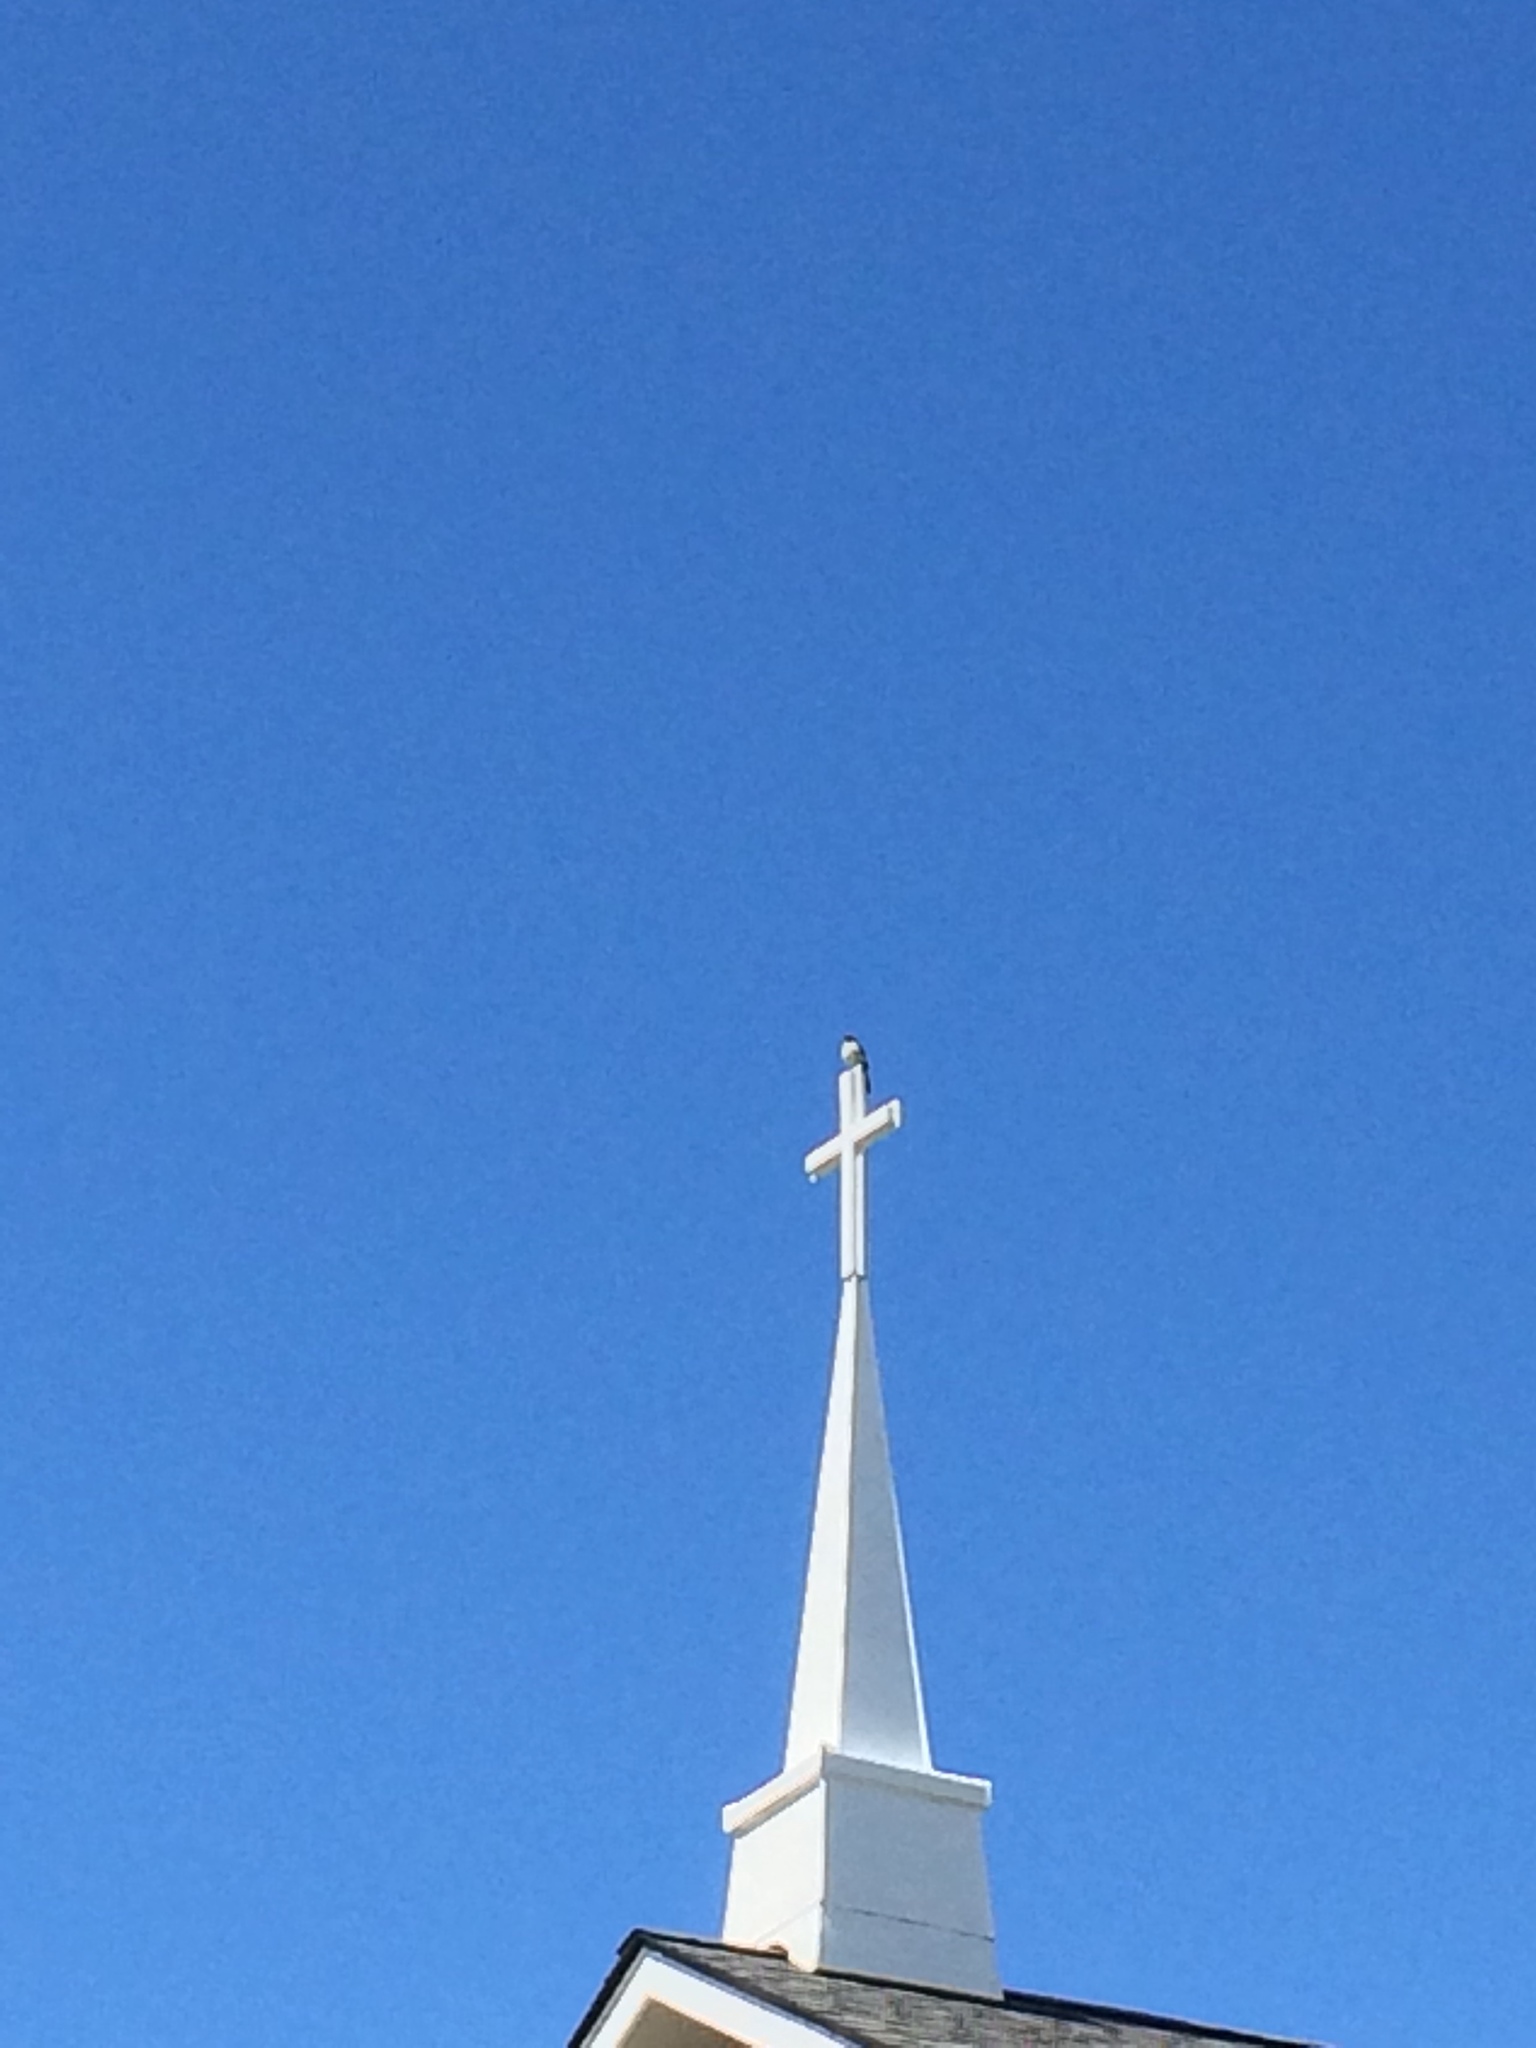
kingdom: Animalia
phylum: Chordata
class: Aves
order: Passeriformes
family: Corvidae
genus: Aphelocoma
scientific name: Aphelocoma californica
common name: California scrub-jay
